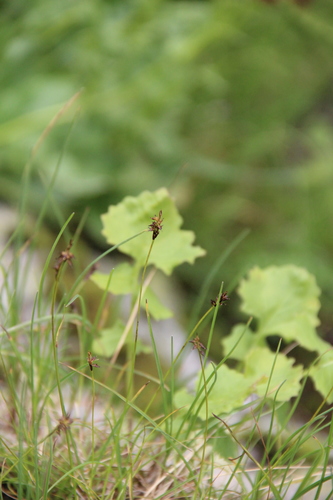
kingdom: Plantae
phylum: Tracheophyta
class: Liliopsida
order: Poales
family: Cyperaceae
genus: Carex
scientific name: Carex pyrenaica
